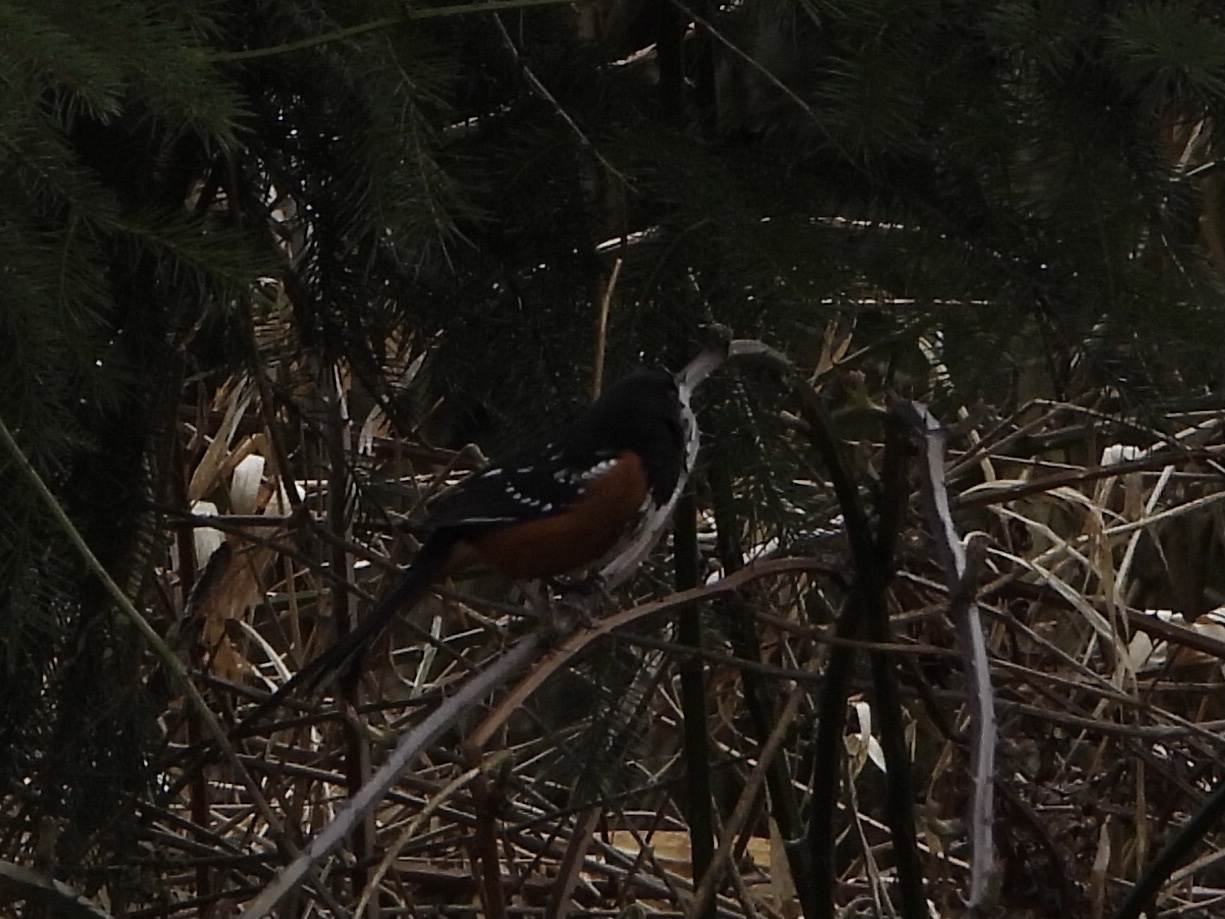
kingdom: Animalia
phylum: Chordata
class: Aves
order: Passeriformes
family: Passerellidae
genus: Pipilo
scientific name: Pipilo maculatus
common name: Spotted towhee
